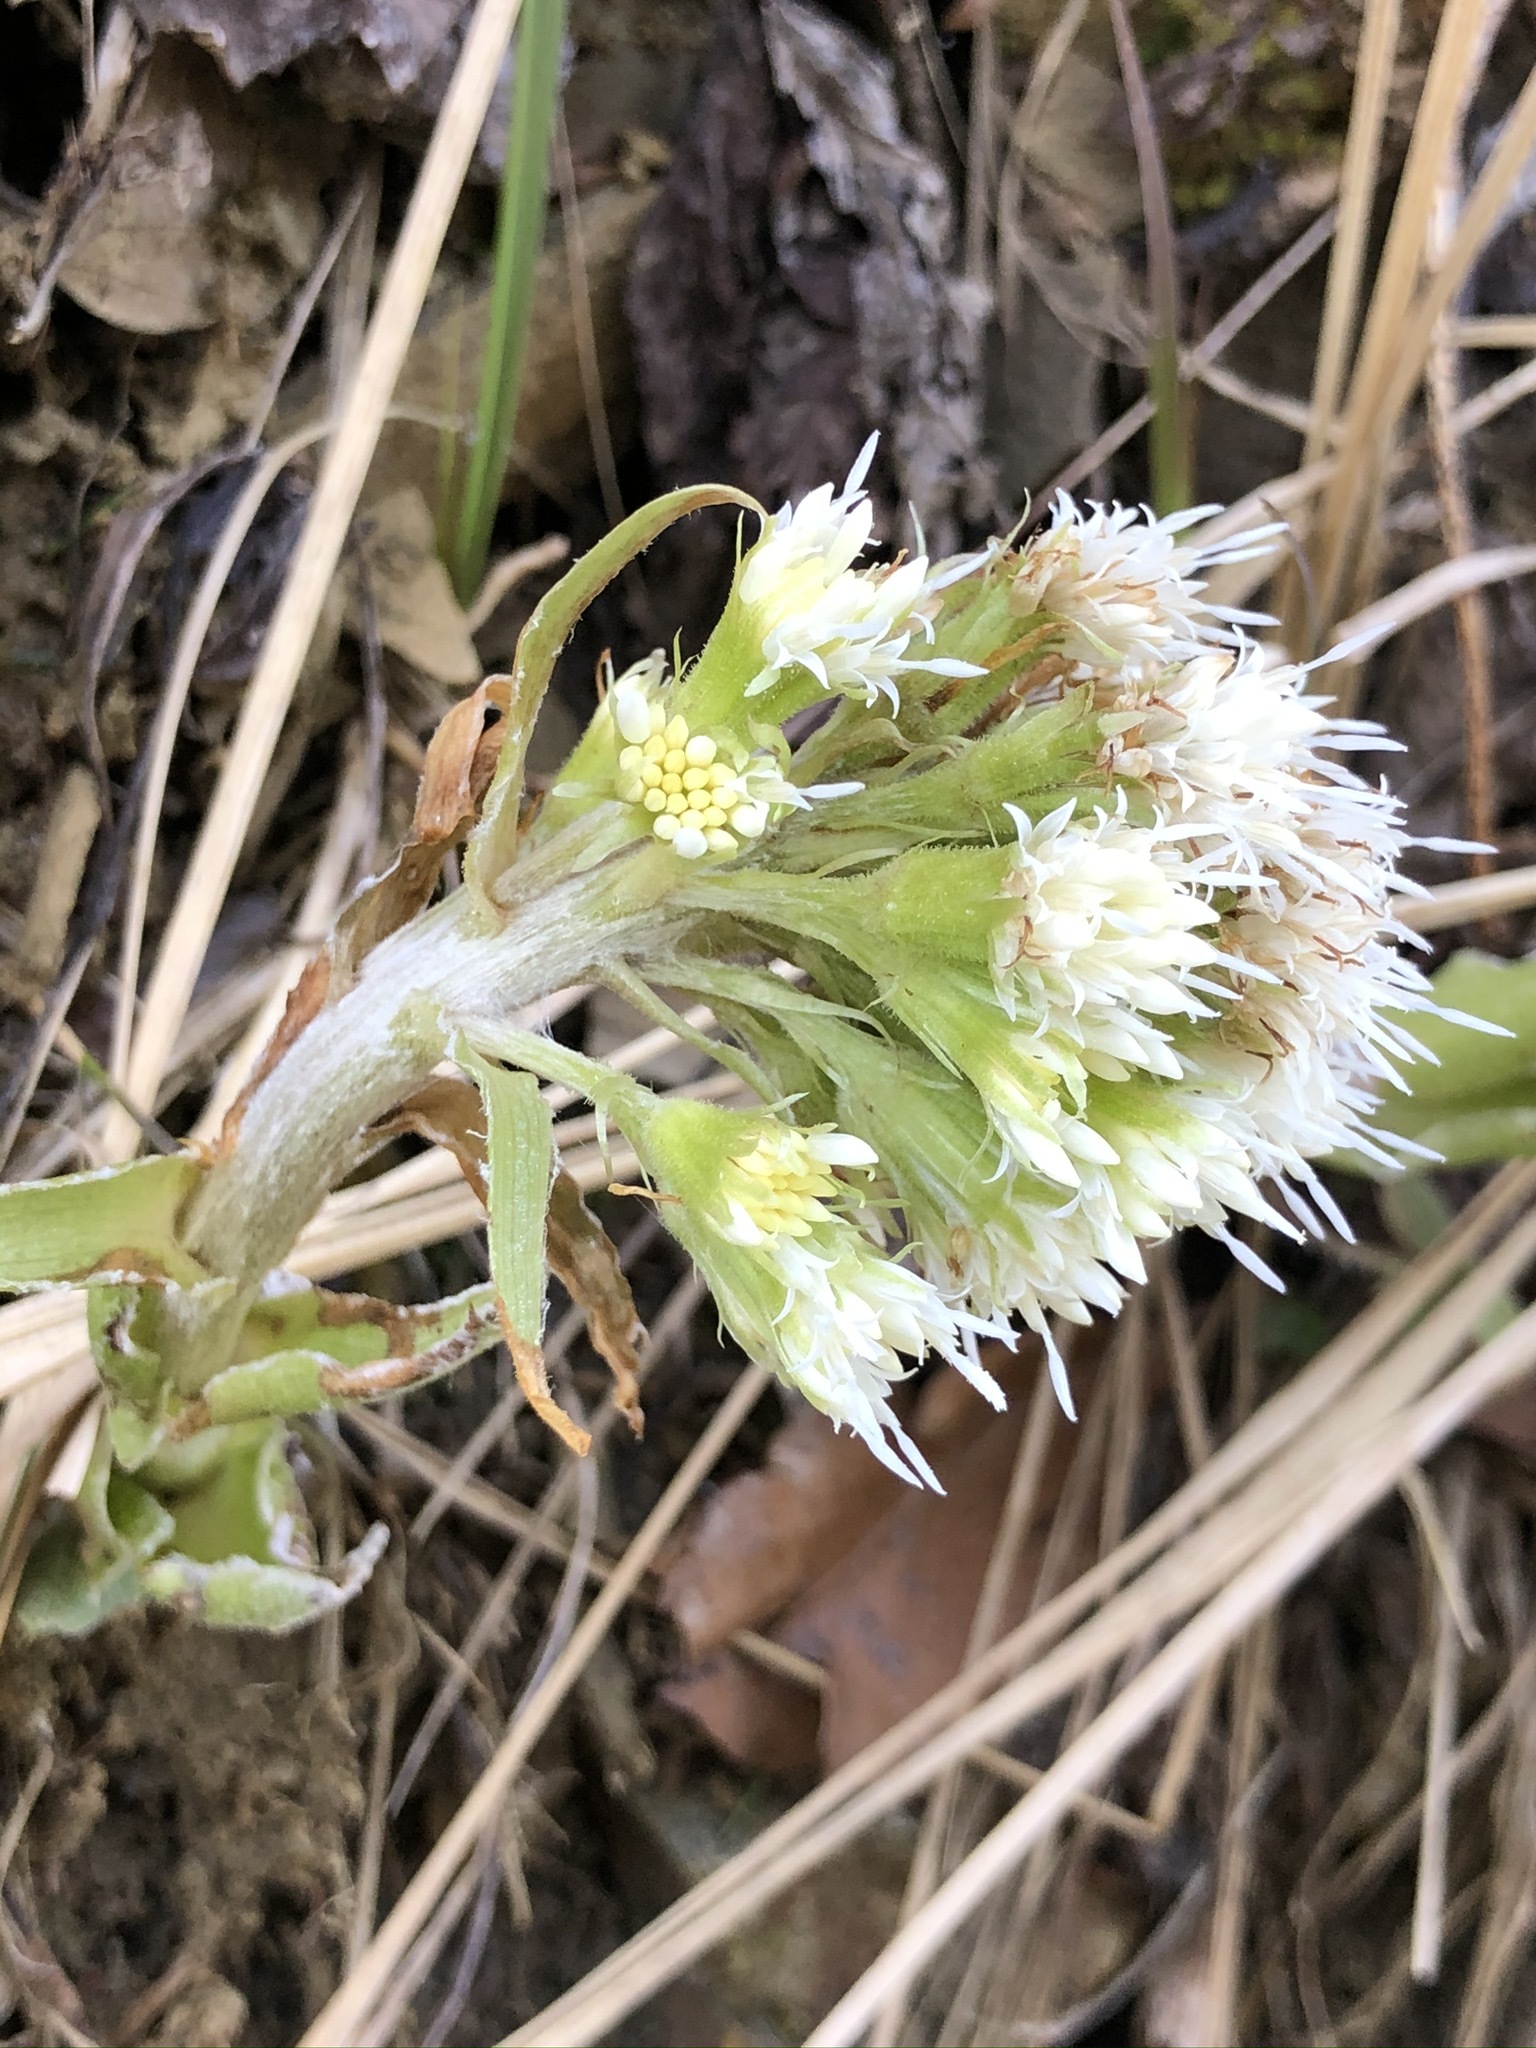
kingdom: Plantae
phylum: Tracheophyta
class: Magnoliopsida
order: Asterales
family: Asteraceae
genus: Petasites
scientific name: Petasites albus
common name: White butterbur
